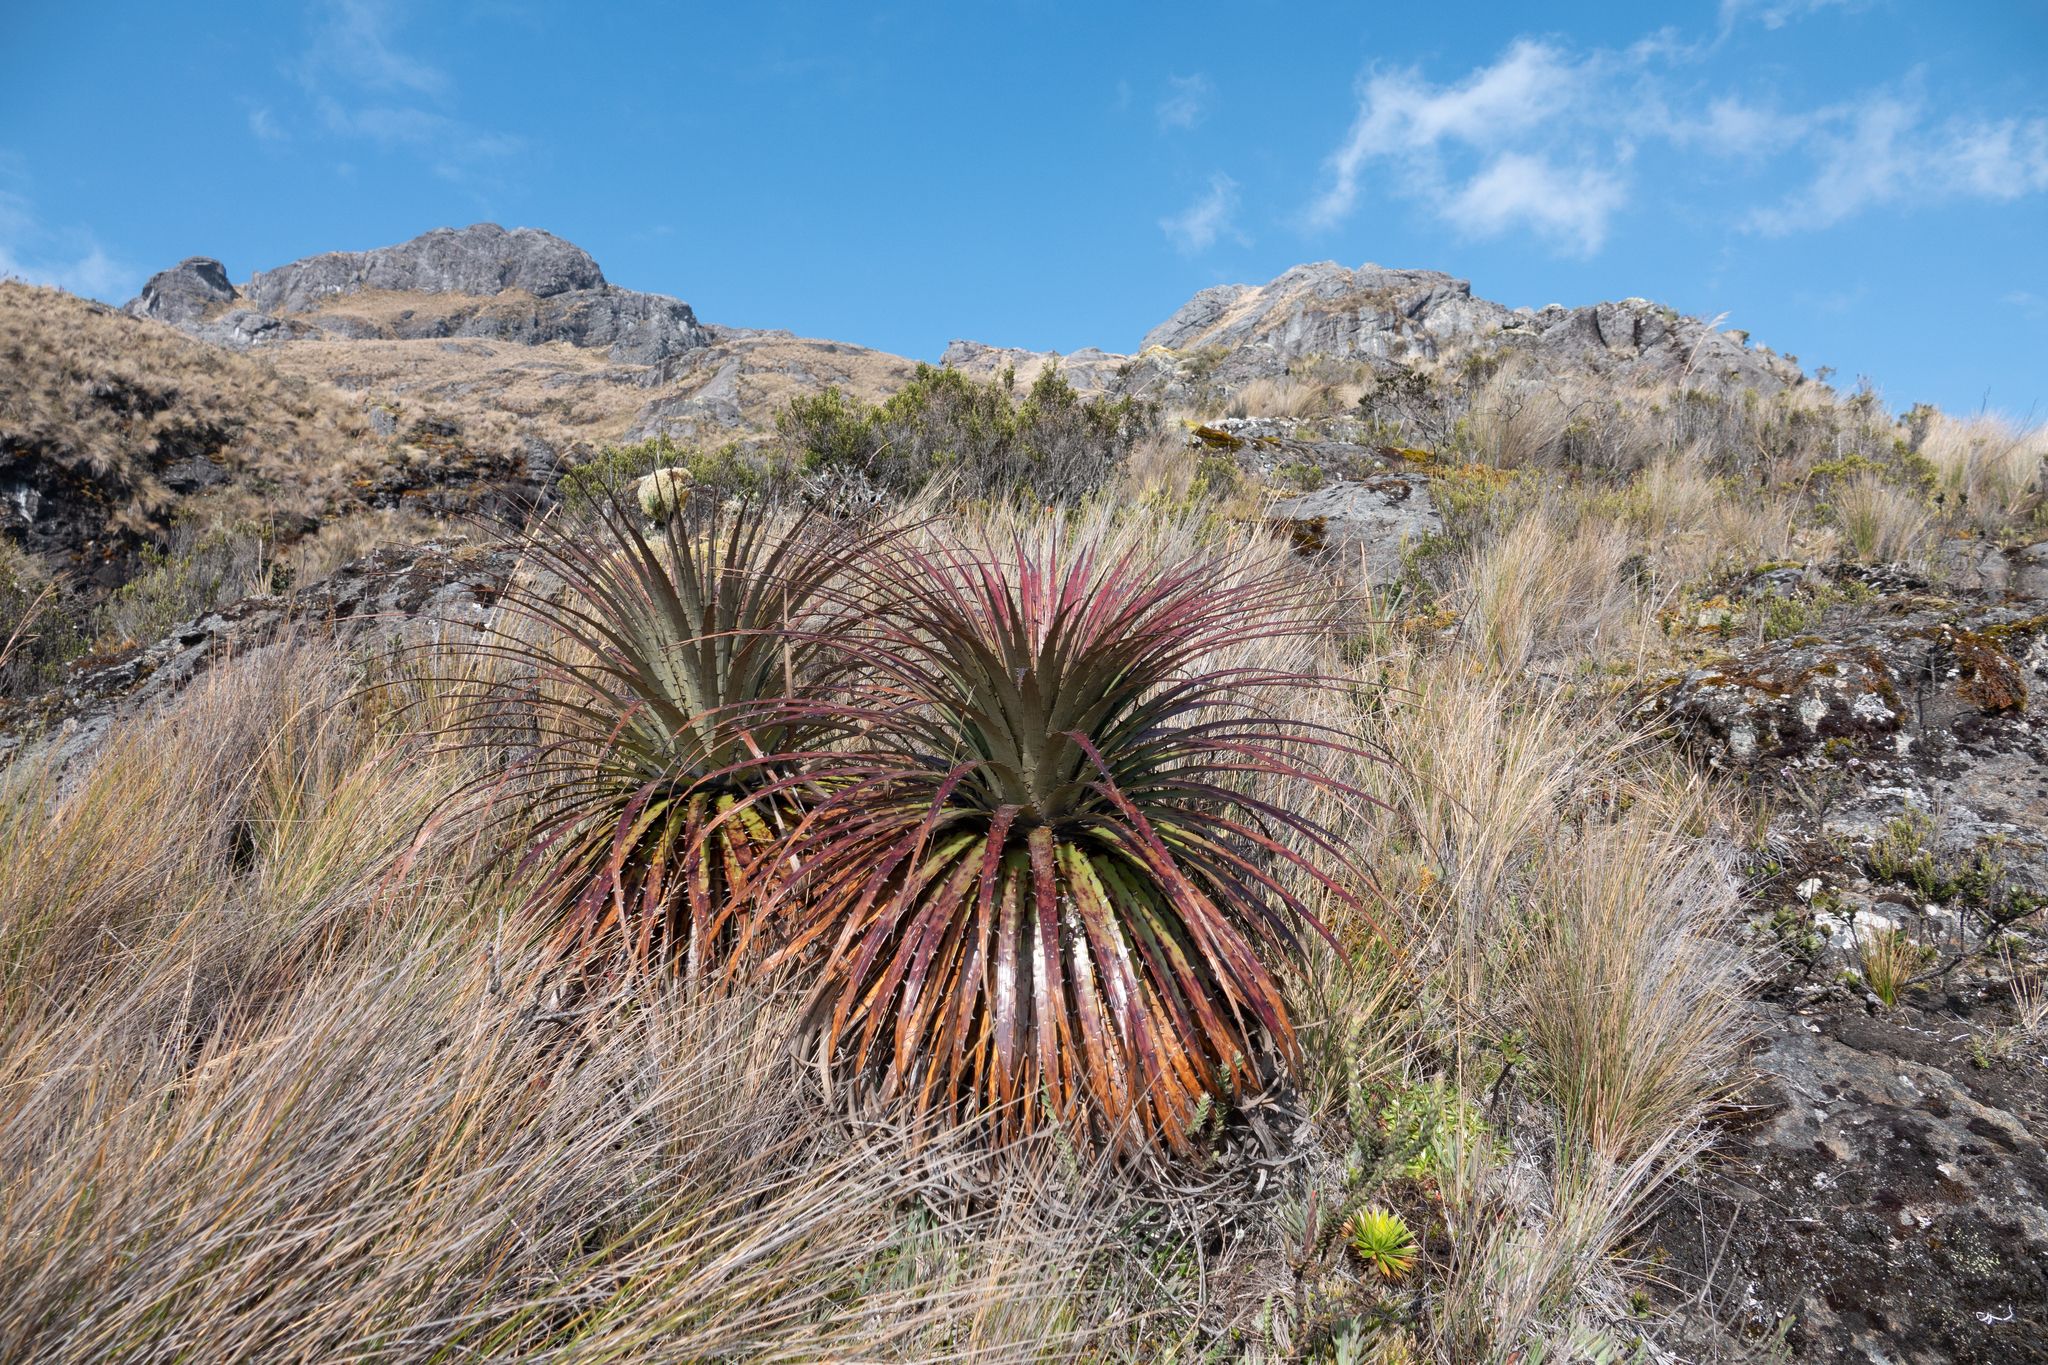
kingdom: Plantae
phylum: Tracheophyta
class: Liliopsida
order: Poales
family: Bromeliaceae
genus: Puya
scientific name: Puya clava-herculis
